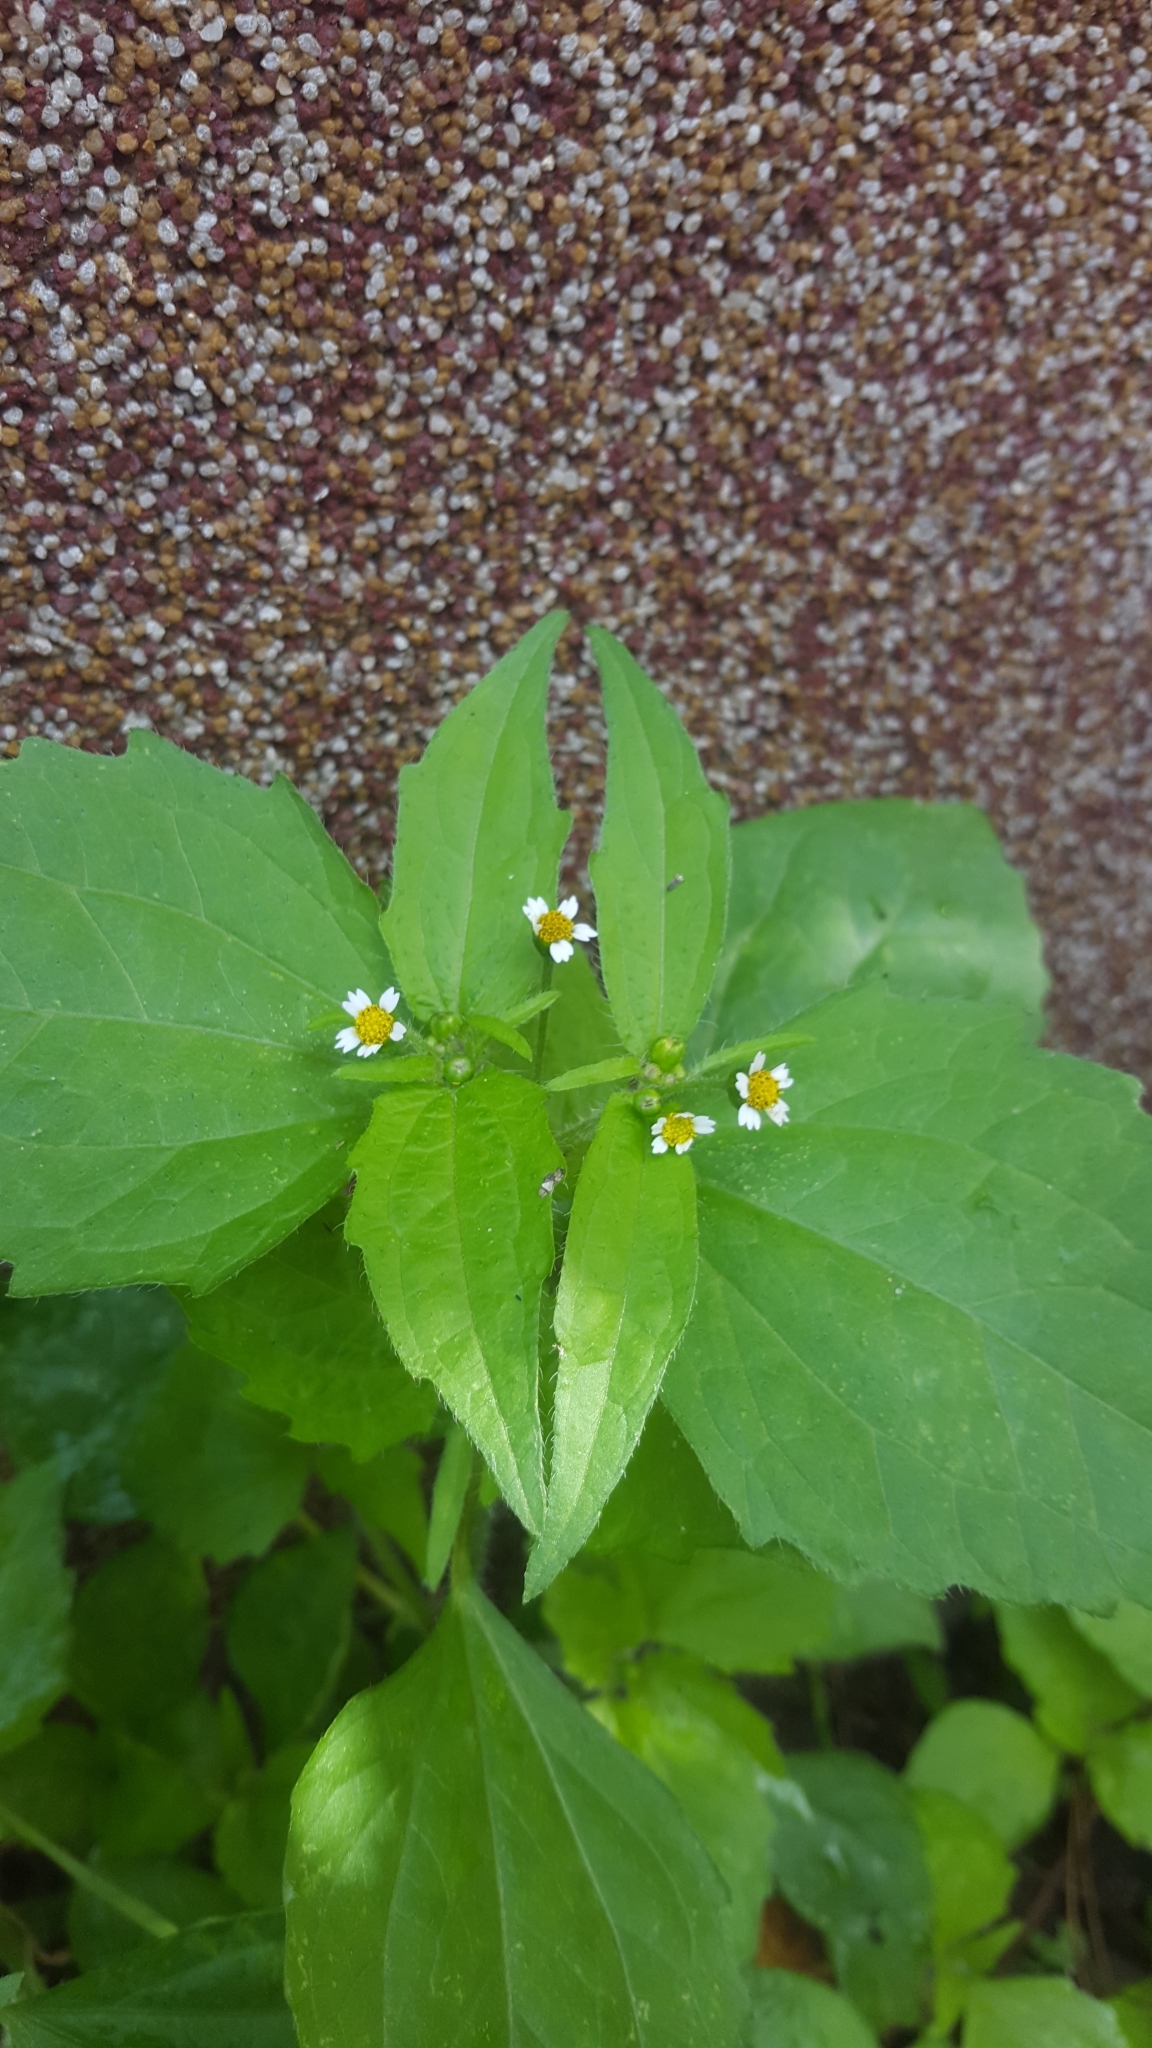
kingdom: Plantae
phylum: Tracheophyta
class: Magnoliopsida
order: Asterales
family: Asteraceae
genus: Galinsoga
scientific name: Galinsoga quadriradiata
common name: Shaggy soldier
